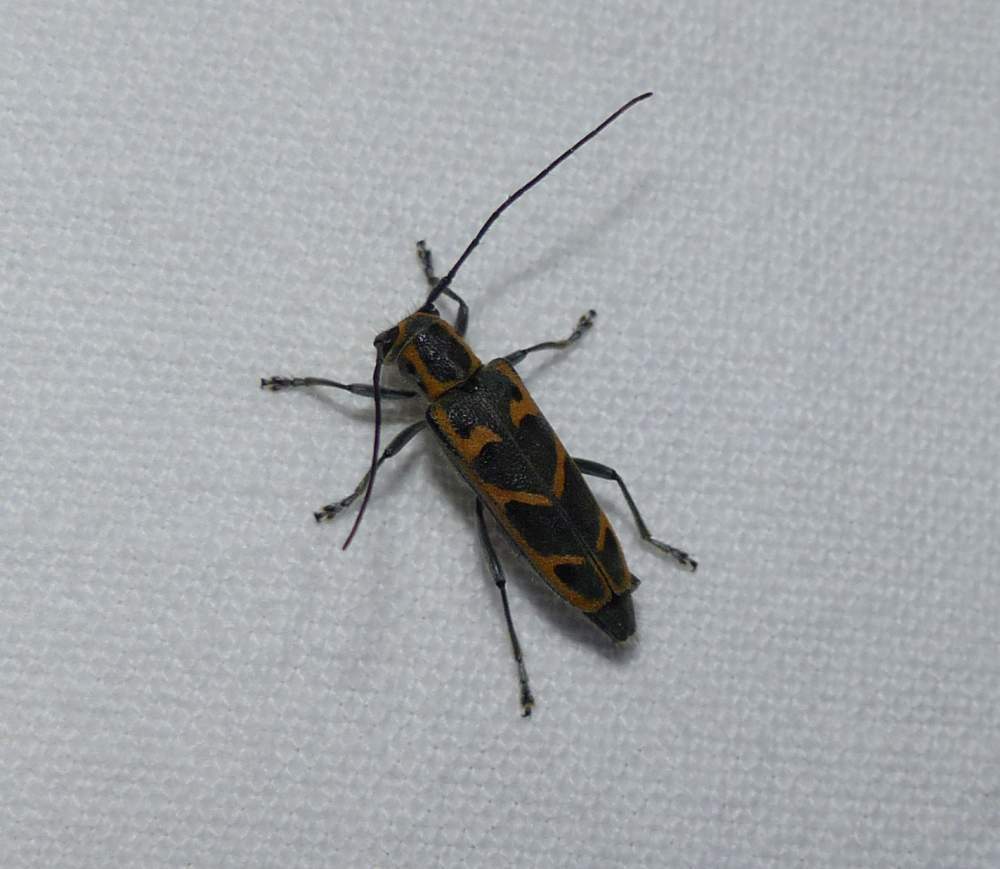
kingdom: Animalia
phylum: Arthropoda
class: Insecta
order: Coleoptera
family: Cerambycidae
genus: Saperda
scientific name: Saperda tridentata
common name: Elm borer
